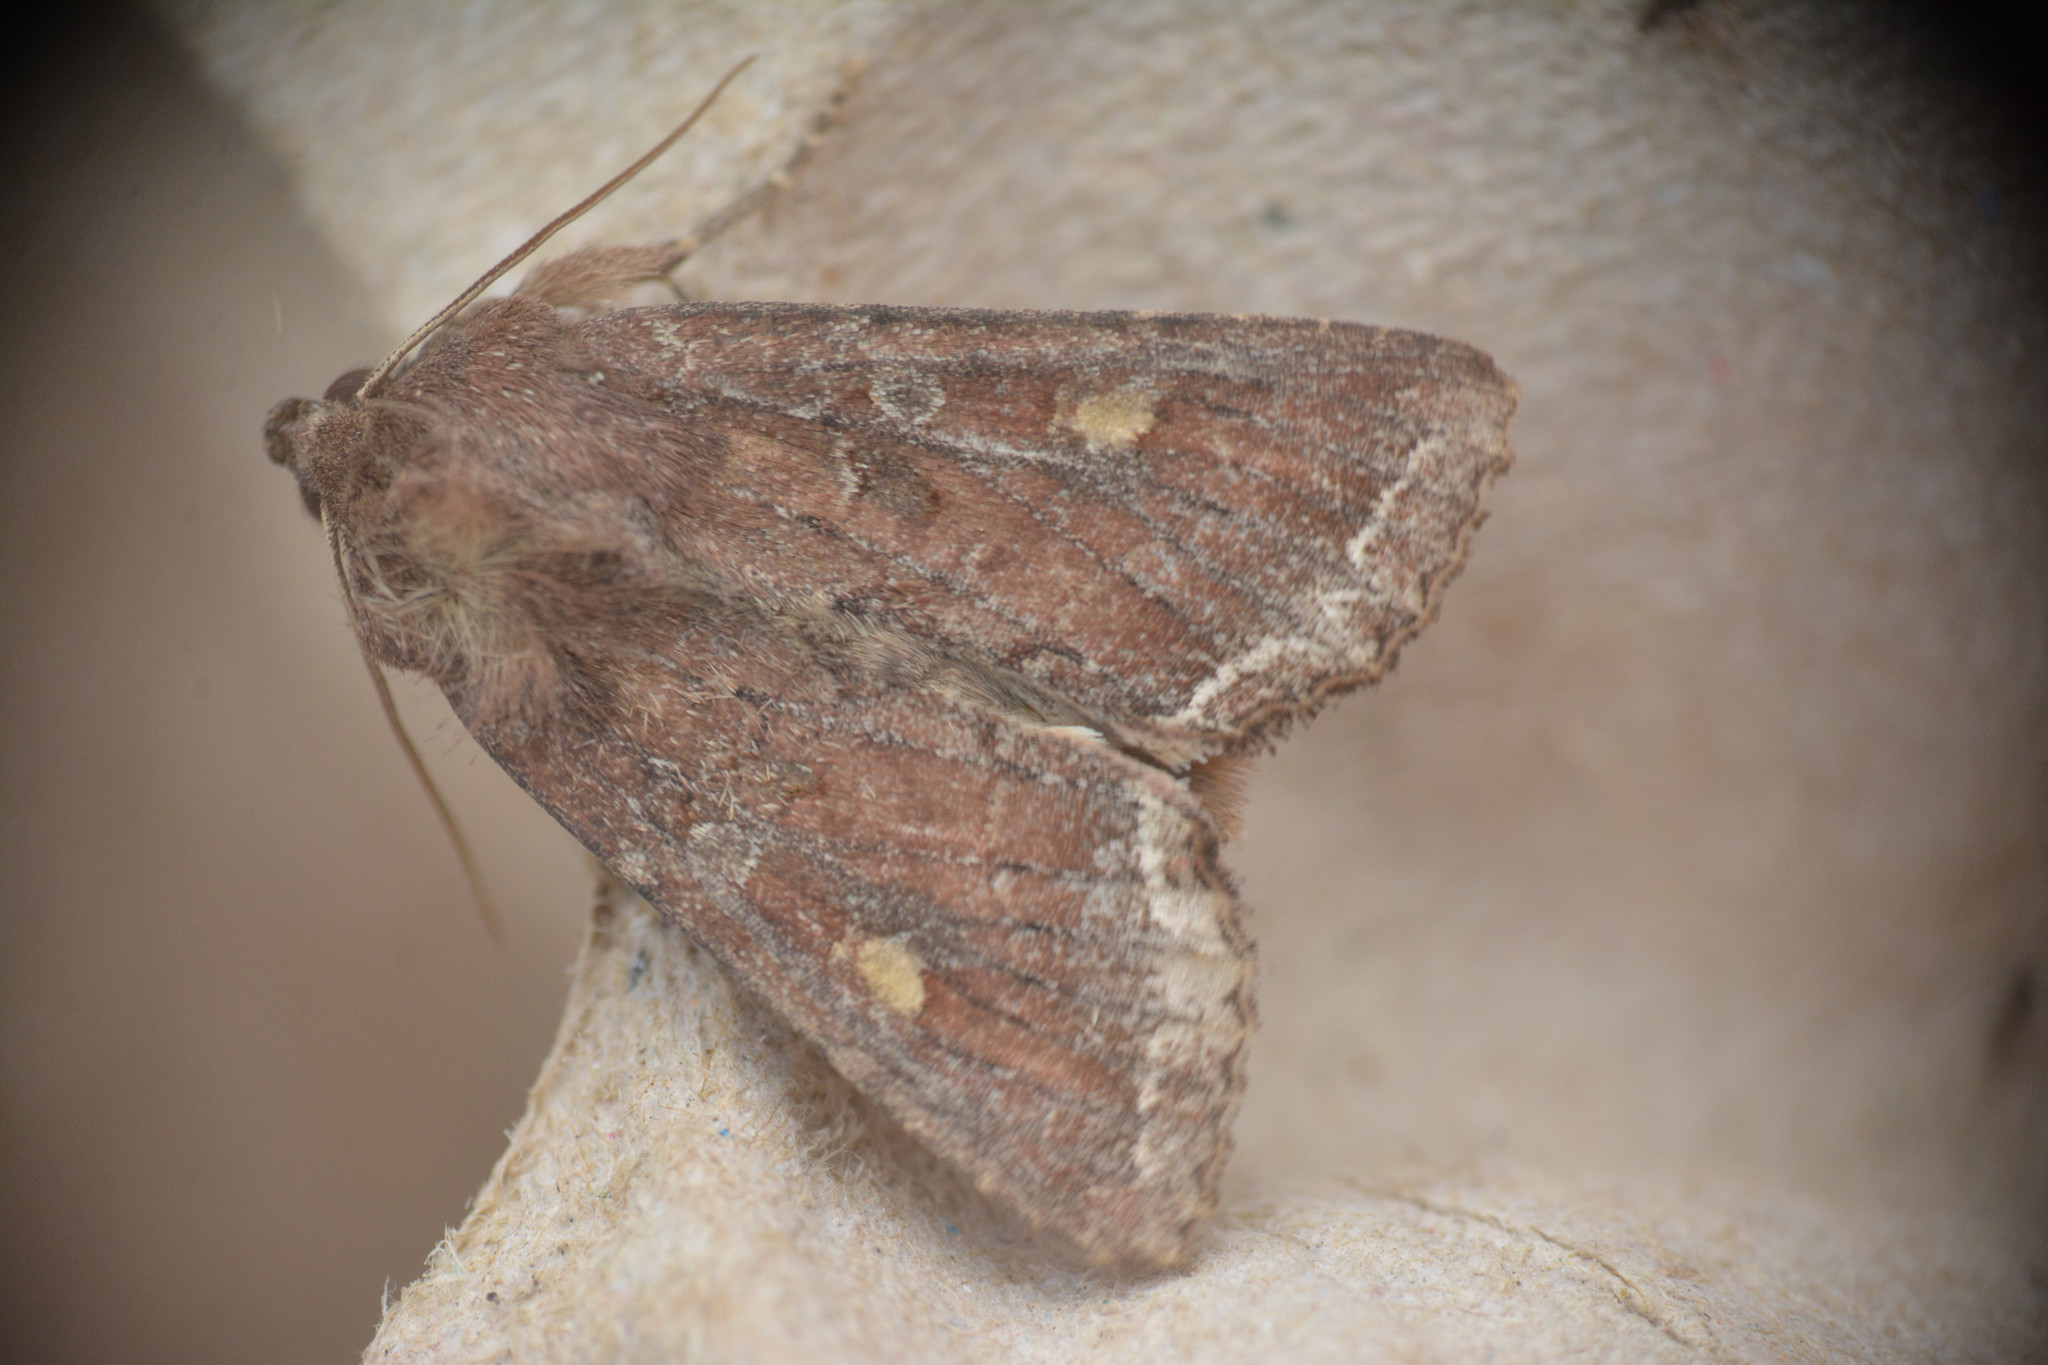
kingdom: Animalia
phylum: Arthropoda
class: Insecta
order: Lepidoptera
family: Noctuidae
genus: Lacanobia
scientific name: Lacanobia oleracea
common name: Bright-line brown-eye
